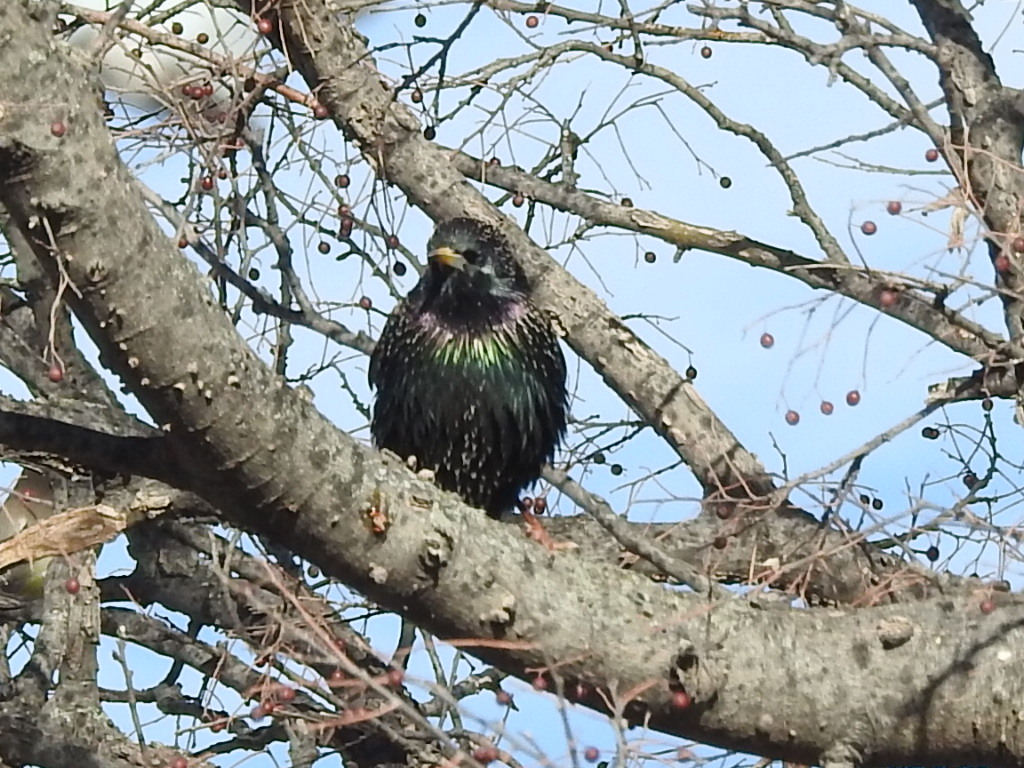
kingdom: Animalia
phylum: Chordata
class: Aves
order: Passeriformes
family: Sturnidae
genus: Sturnus
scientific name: Sturnus vulgaris
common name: Common starling
